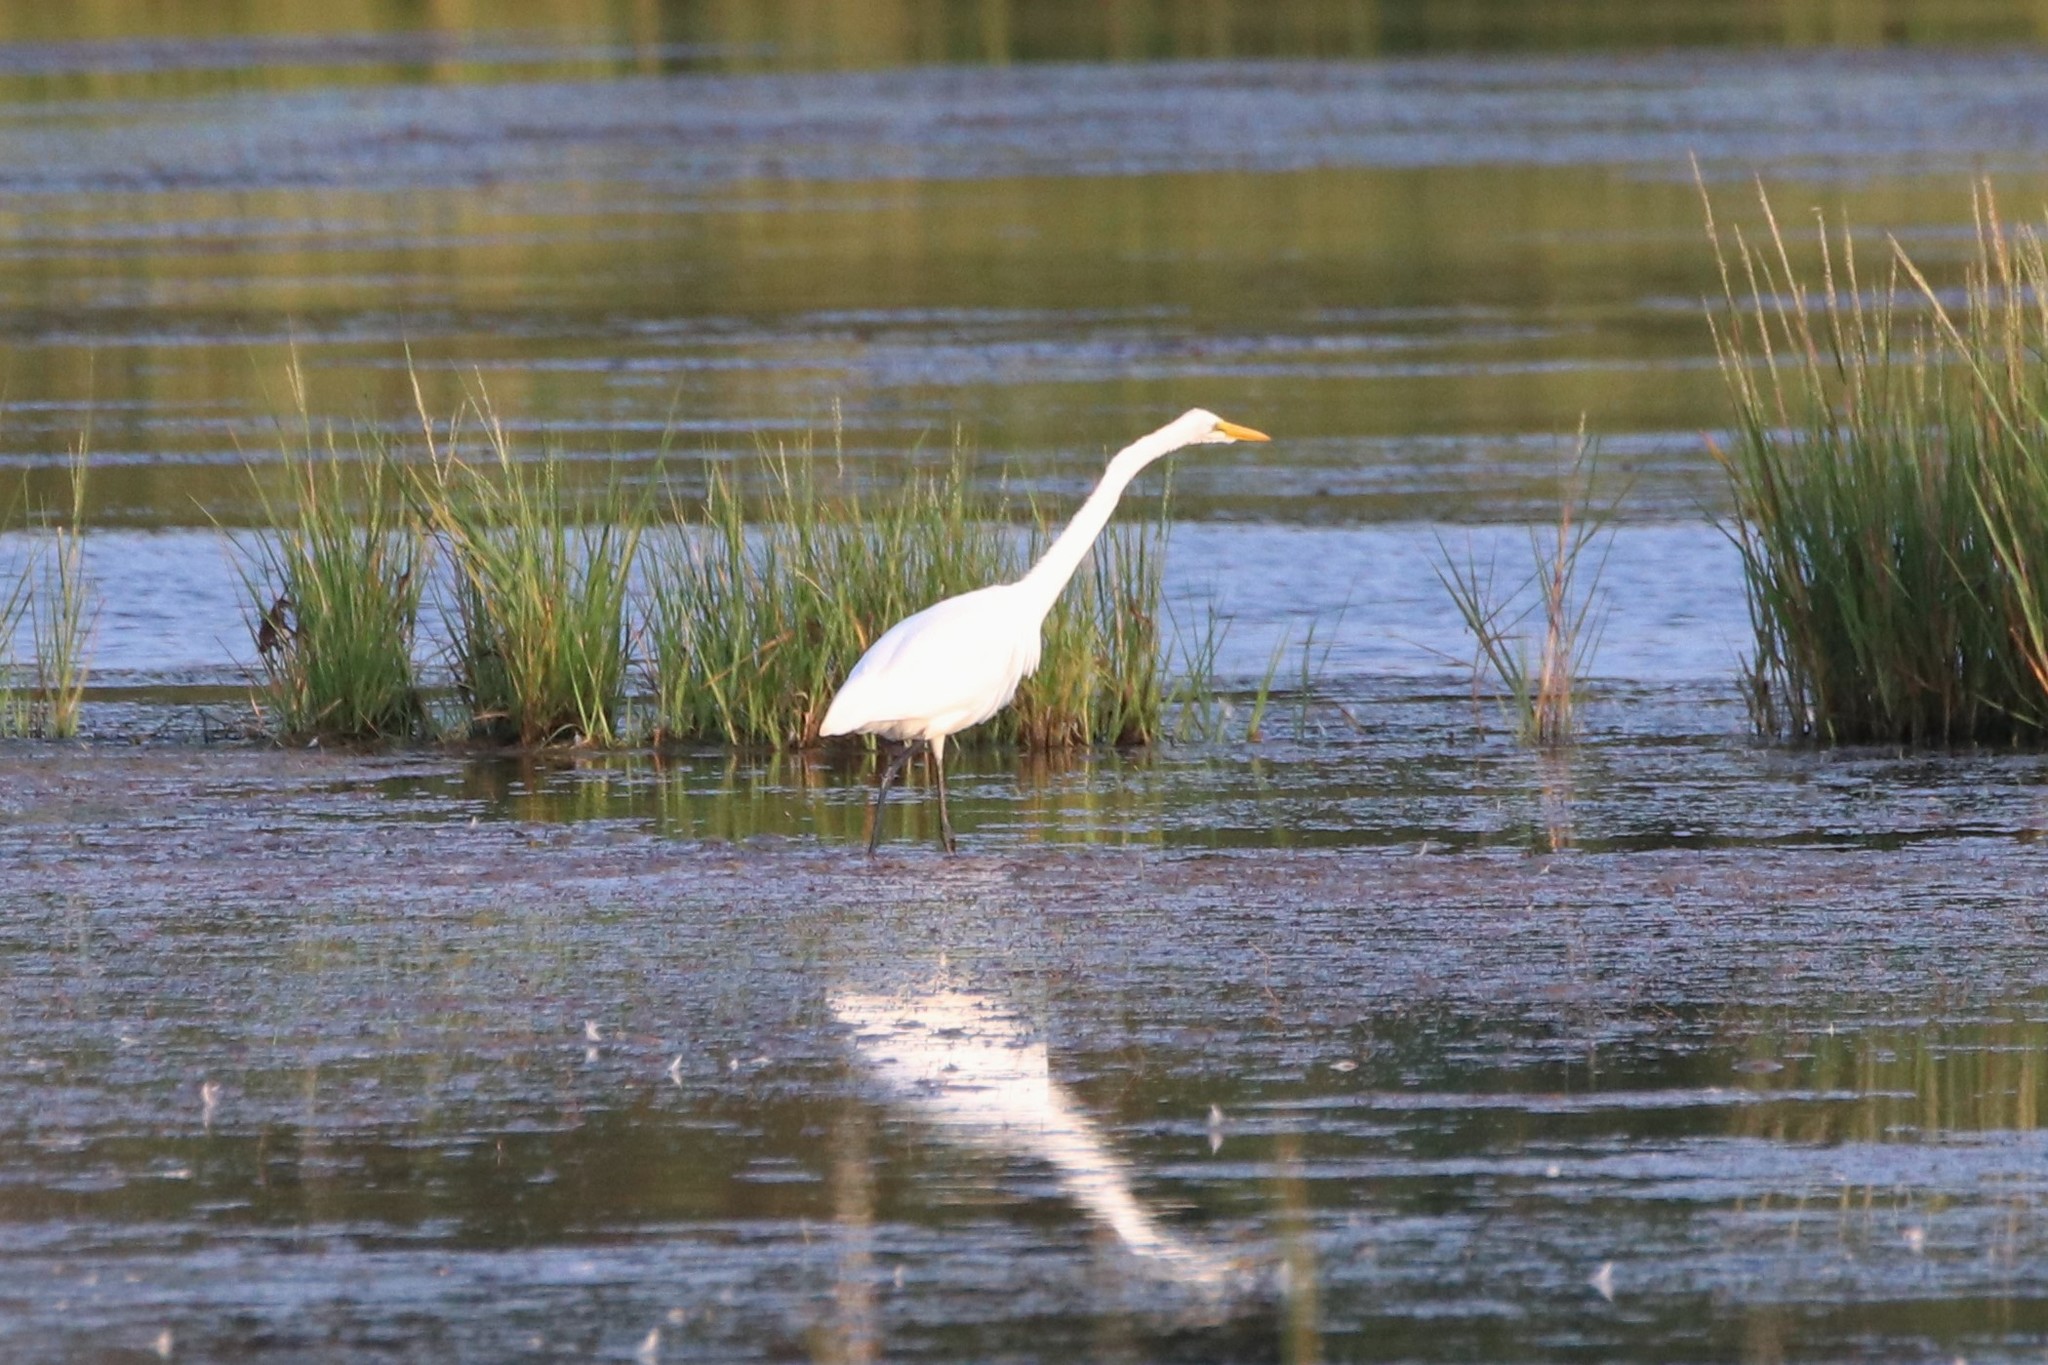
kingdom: Animalia
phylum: Chordata
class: Aves
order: Pelecaniformes
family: Ardeidae
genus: Ardea
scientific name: Ardea alba
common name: Great egret
